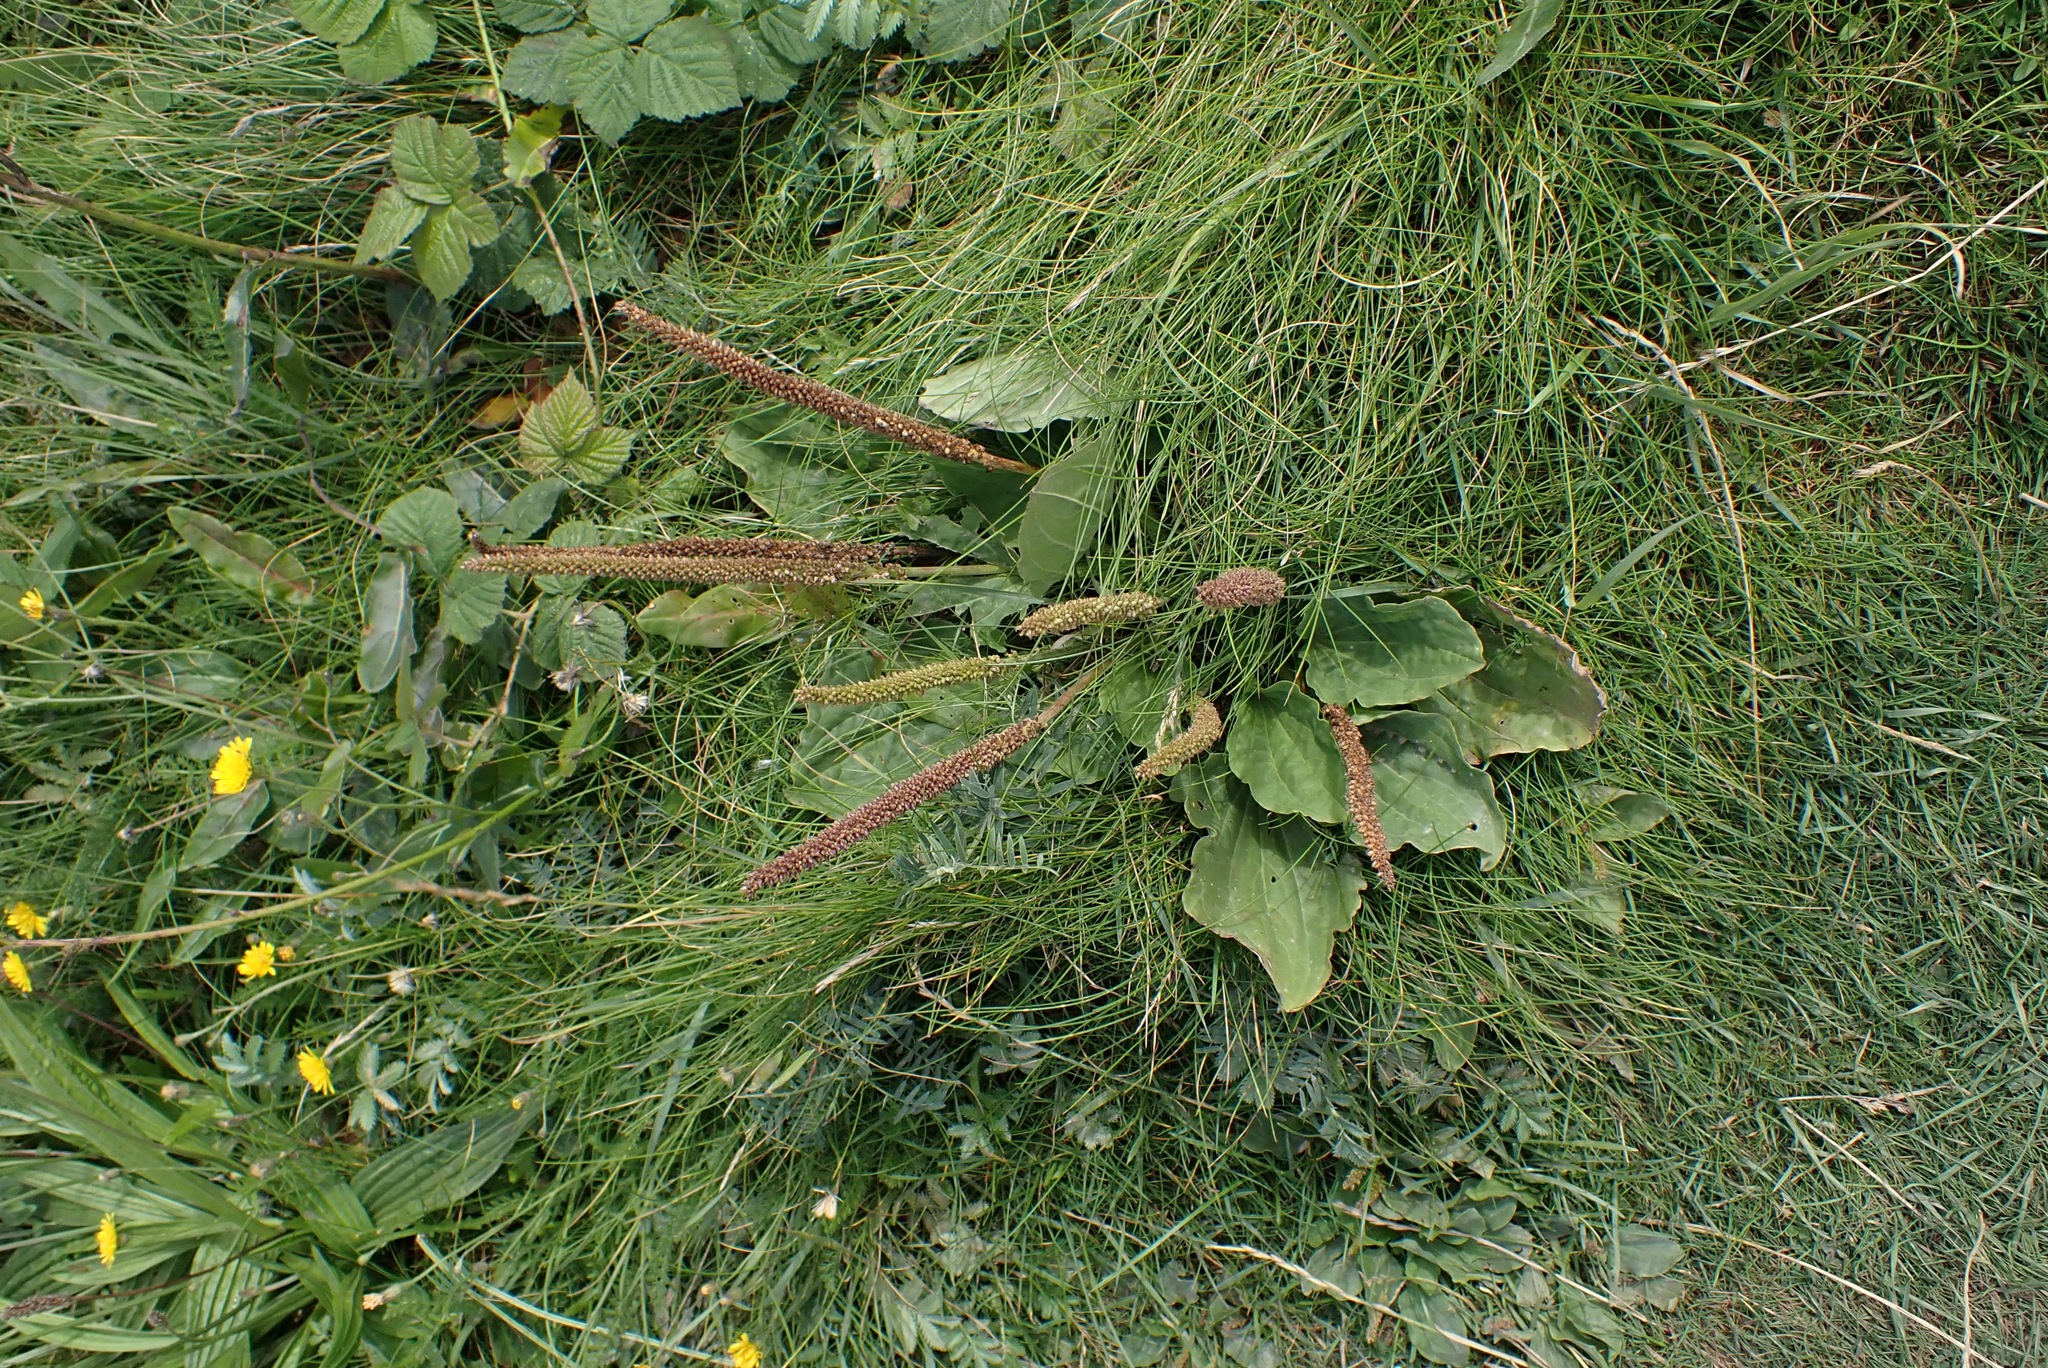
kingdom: Plantae
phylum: Tracheophyta
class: Magnoliopsida
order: Lamiales
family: Plantaginaceae
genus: Plantago
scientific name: Plantago major
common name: Common plantain
